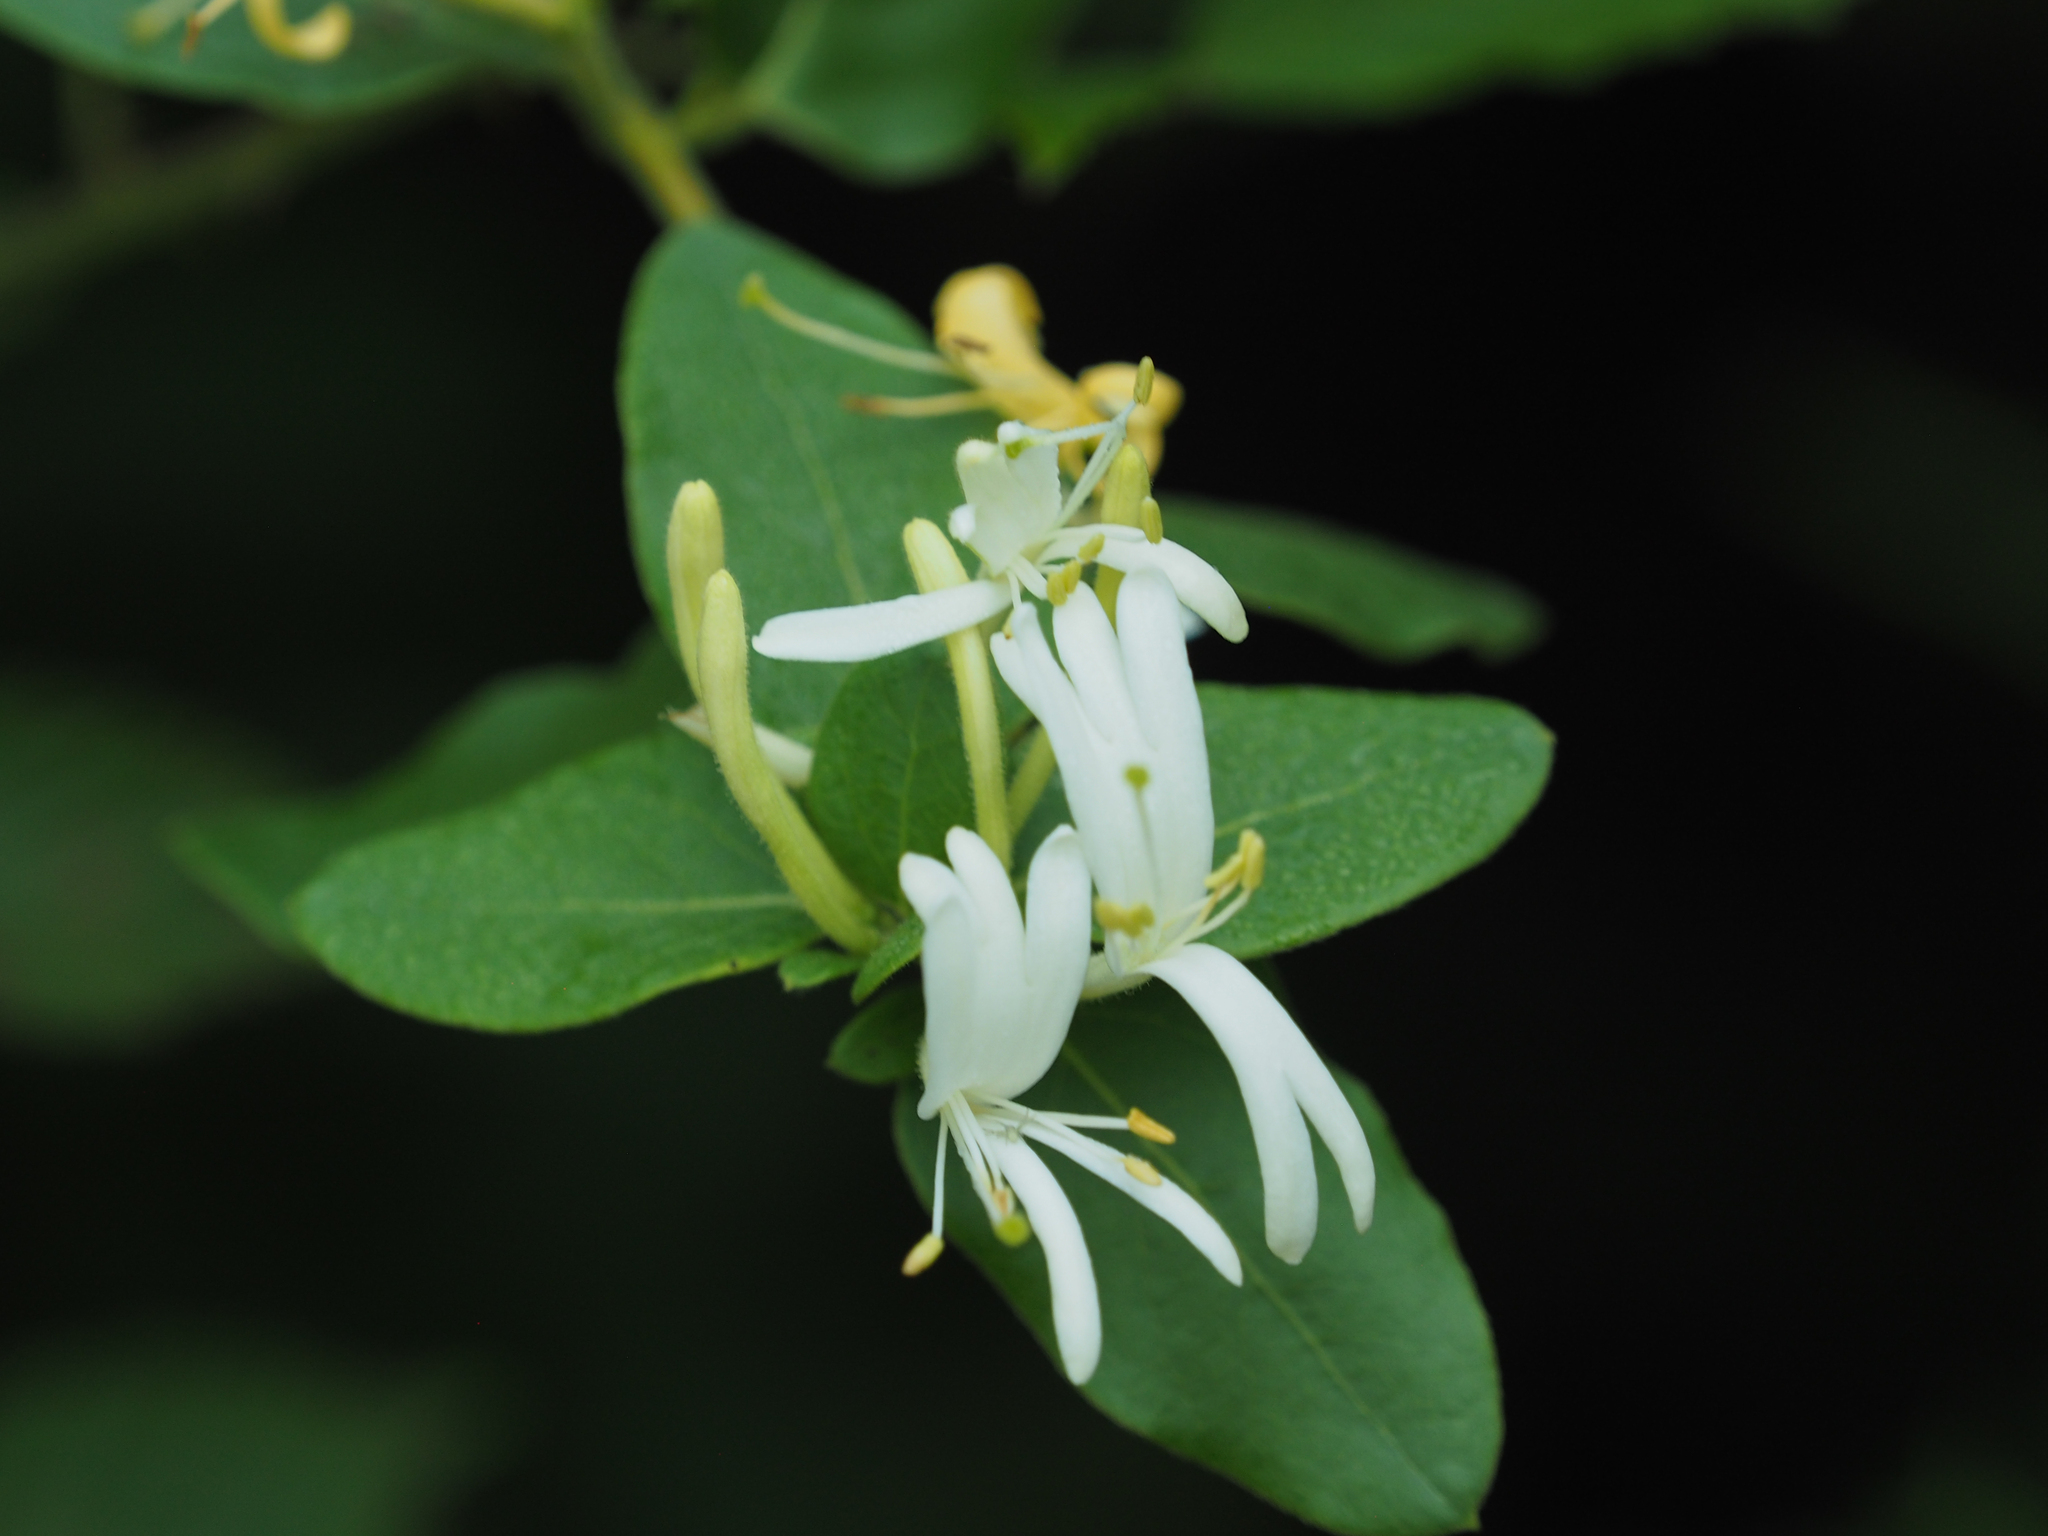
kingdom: Plantae
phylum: Tracheophyta
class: Magnoliopsida
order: Dipsacales
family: Caprifoliaceae
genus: Lonicera
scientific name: Lonicera japonica
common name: Japanese honeysuckle
